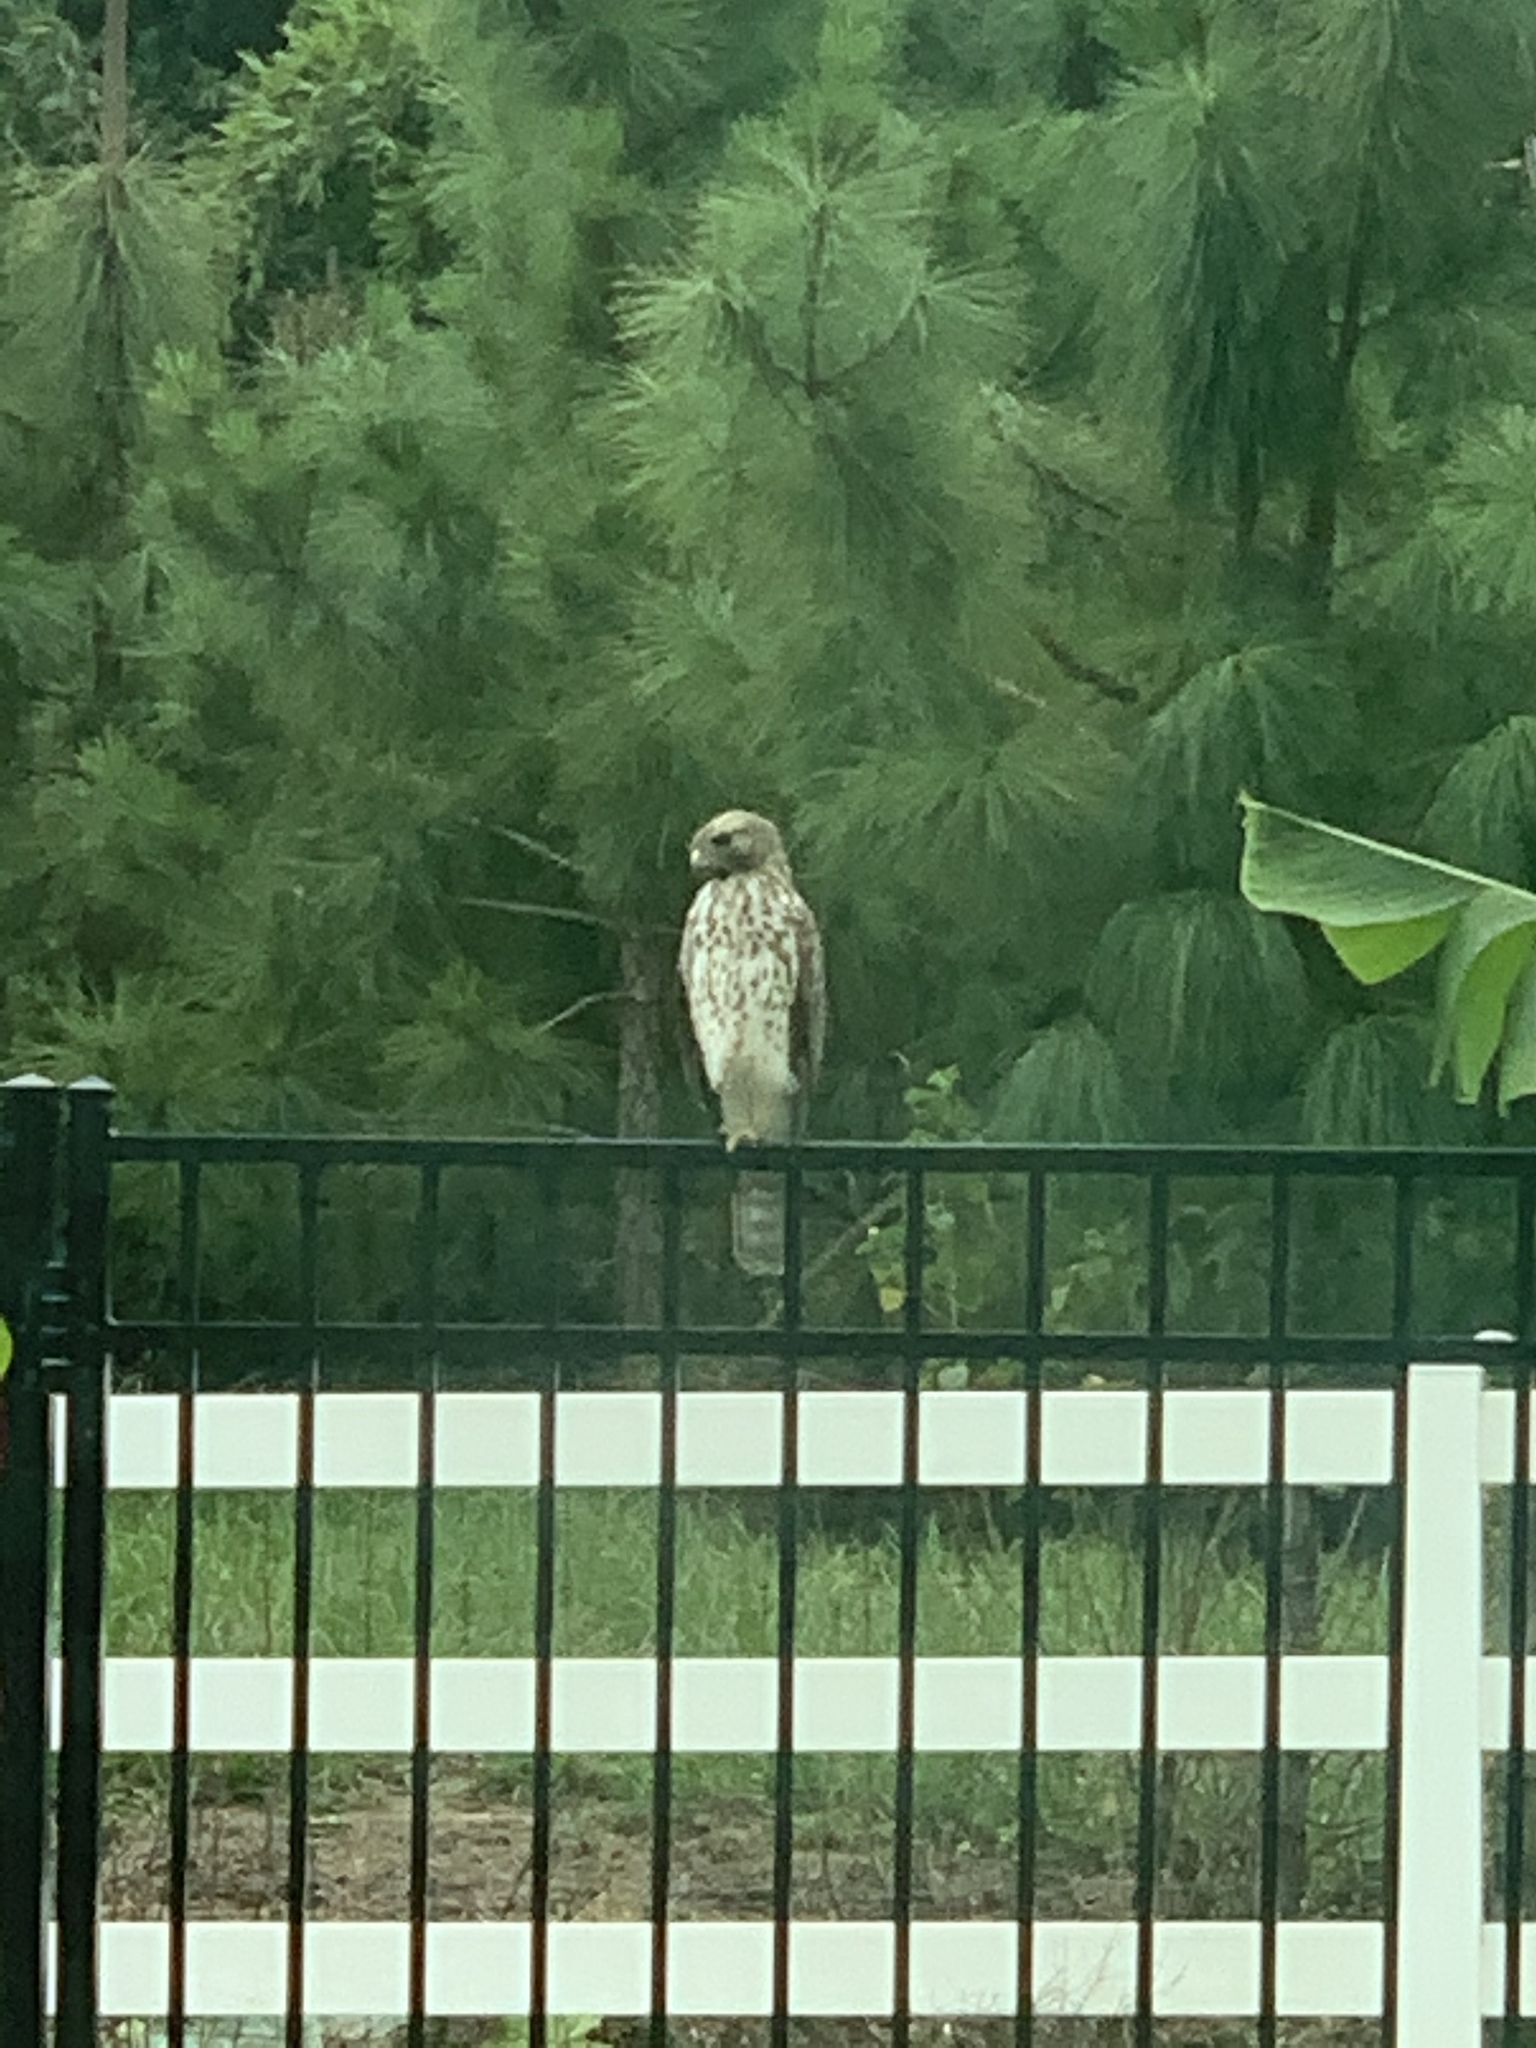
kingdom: Animalia
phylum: Chordata
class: Aves
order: Accipitriformes
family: Accipitridae
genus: Buteo
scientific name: Buteo lineatus
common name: Red-shouldered hawk
